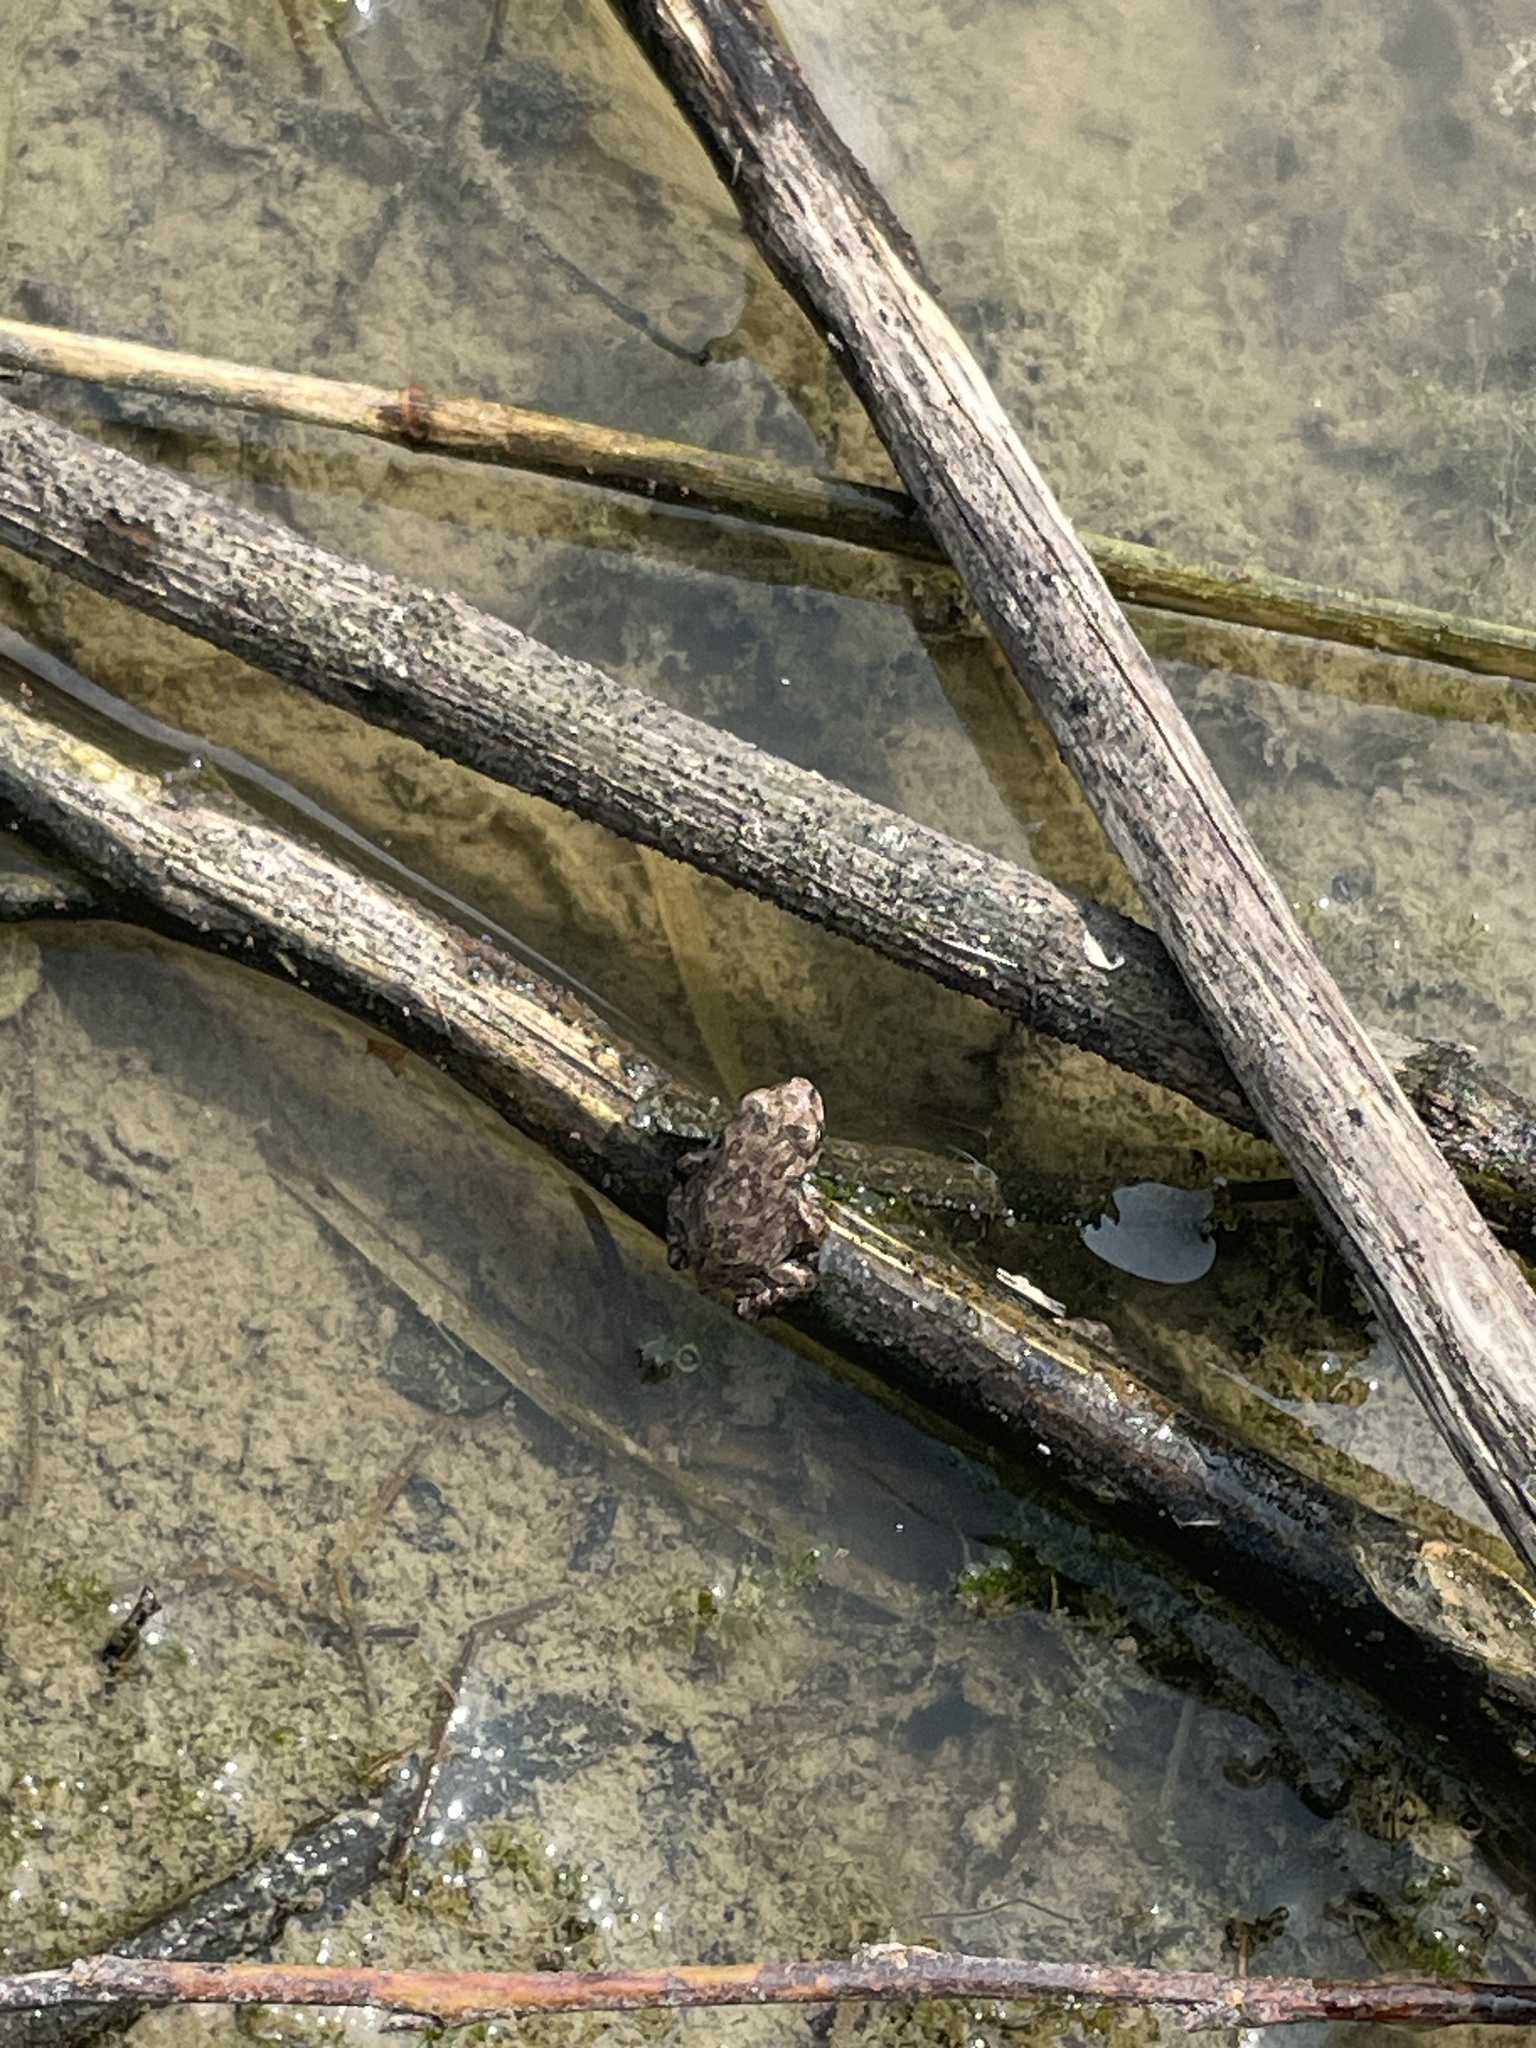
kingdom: Animalia
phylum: Chordata
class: Amphibia
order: Anura
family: Bufonidae
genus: Anaxyrus
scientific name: Anaxyrus fowleri
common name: Fowler's toad
